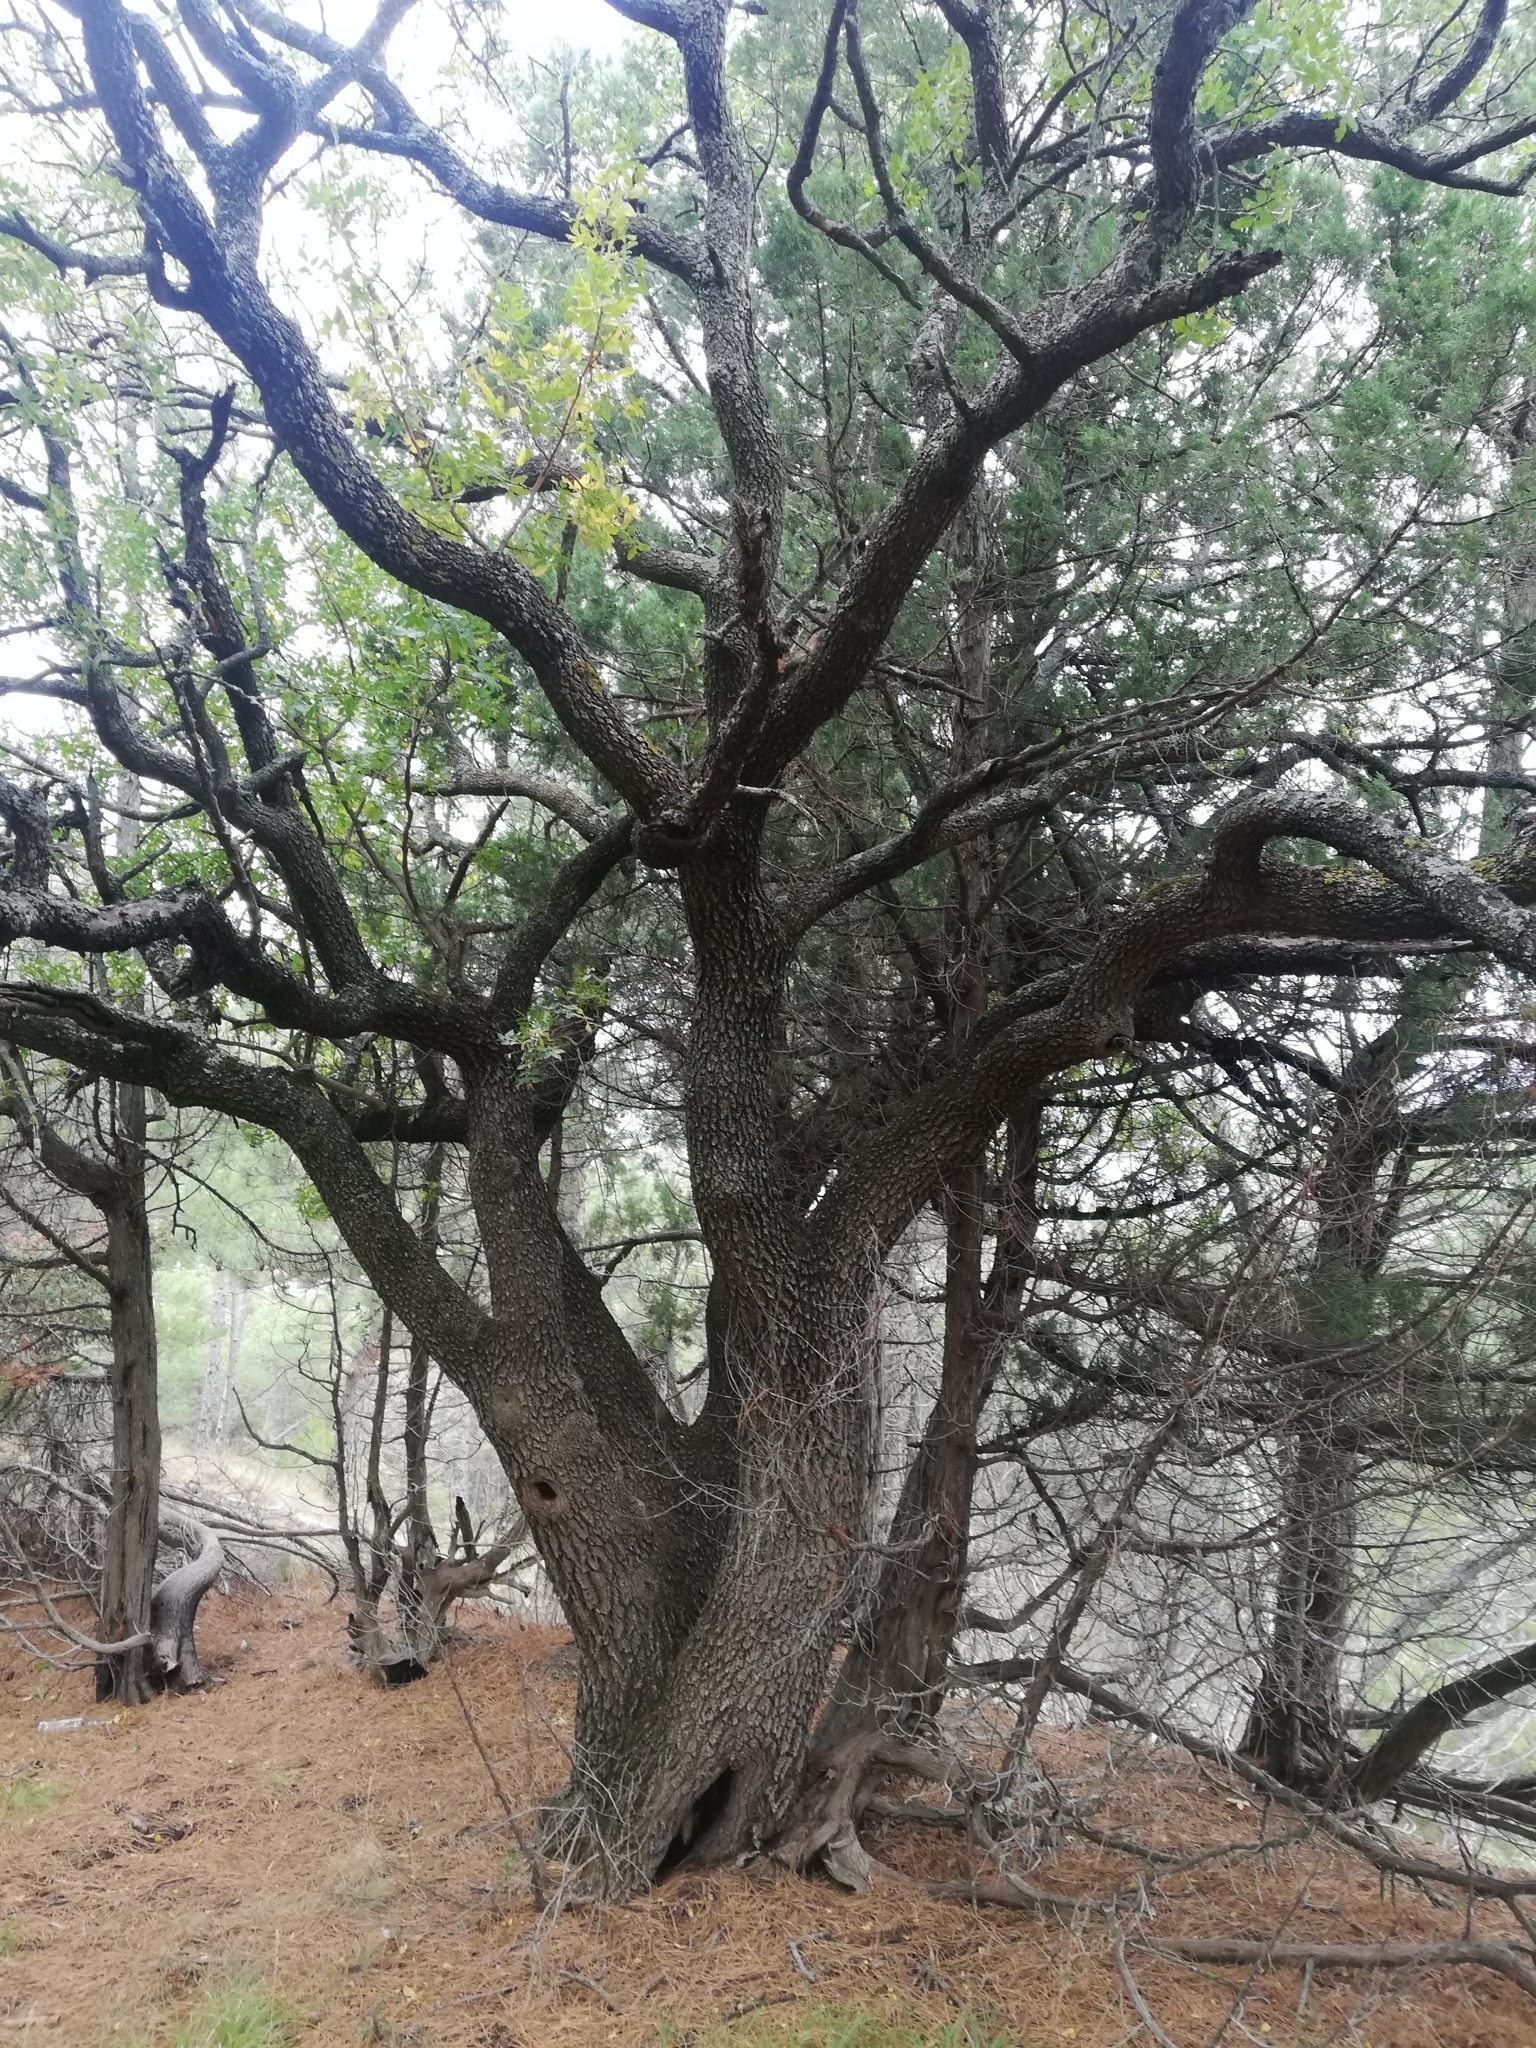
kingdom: Plantae
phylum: Tracheophyta
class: Magnoliopsida
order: Sapindales
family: Anacardiaceae
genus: Pistacia
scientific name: Pistacia atlantica
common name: Mt. atlas mastic tree
